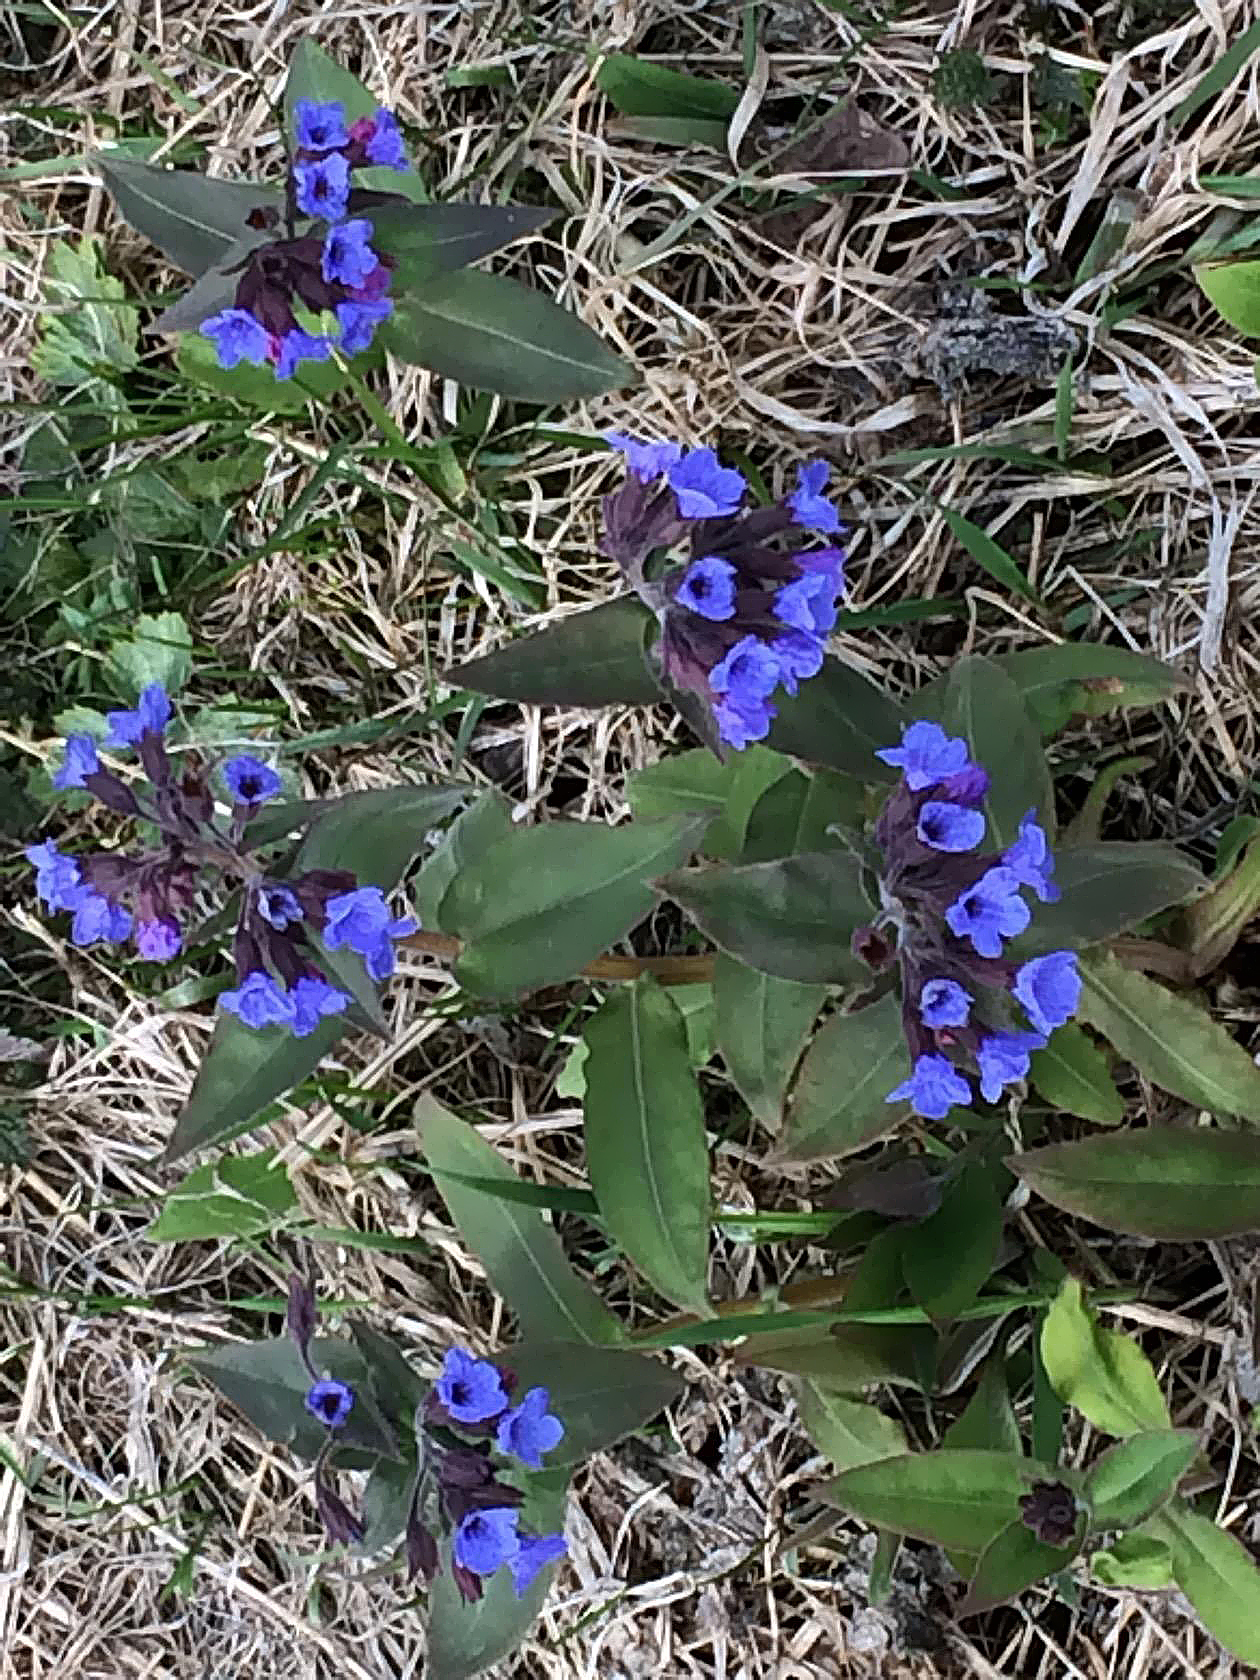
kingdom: Plantae
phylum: Tracheophyta
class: Magnoliopsida
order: Boraginales
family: Boraginaceae
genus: Pulmonaria
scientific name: Pulmonaria mollis
